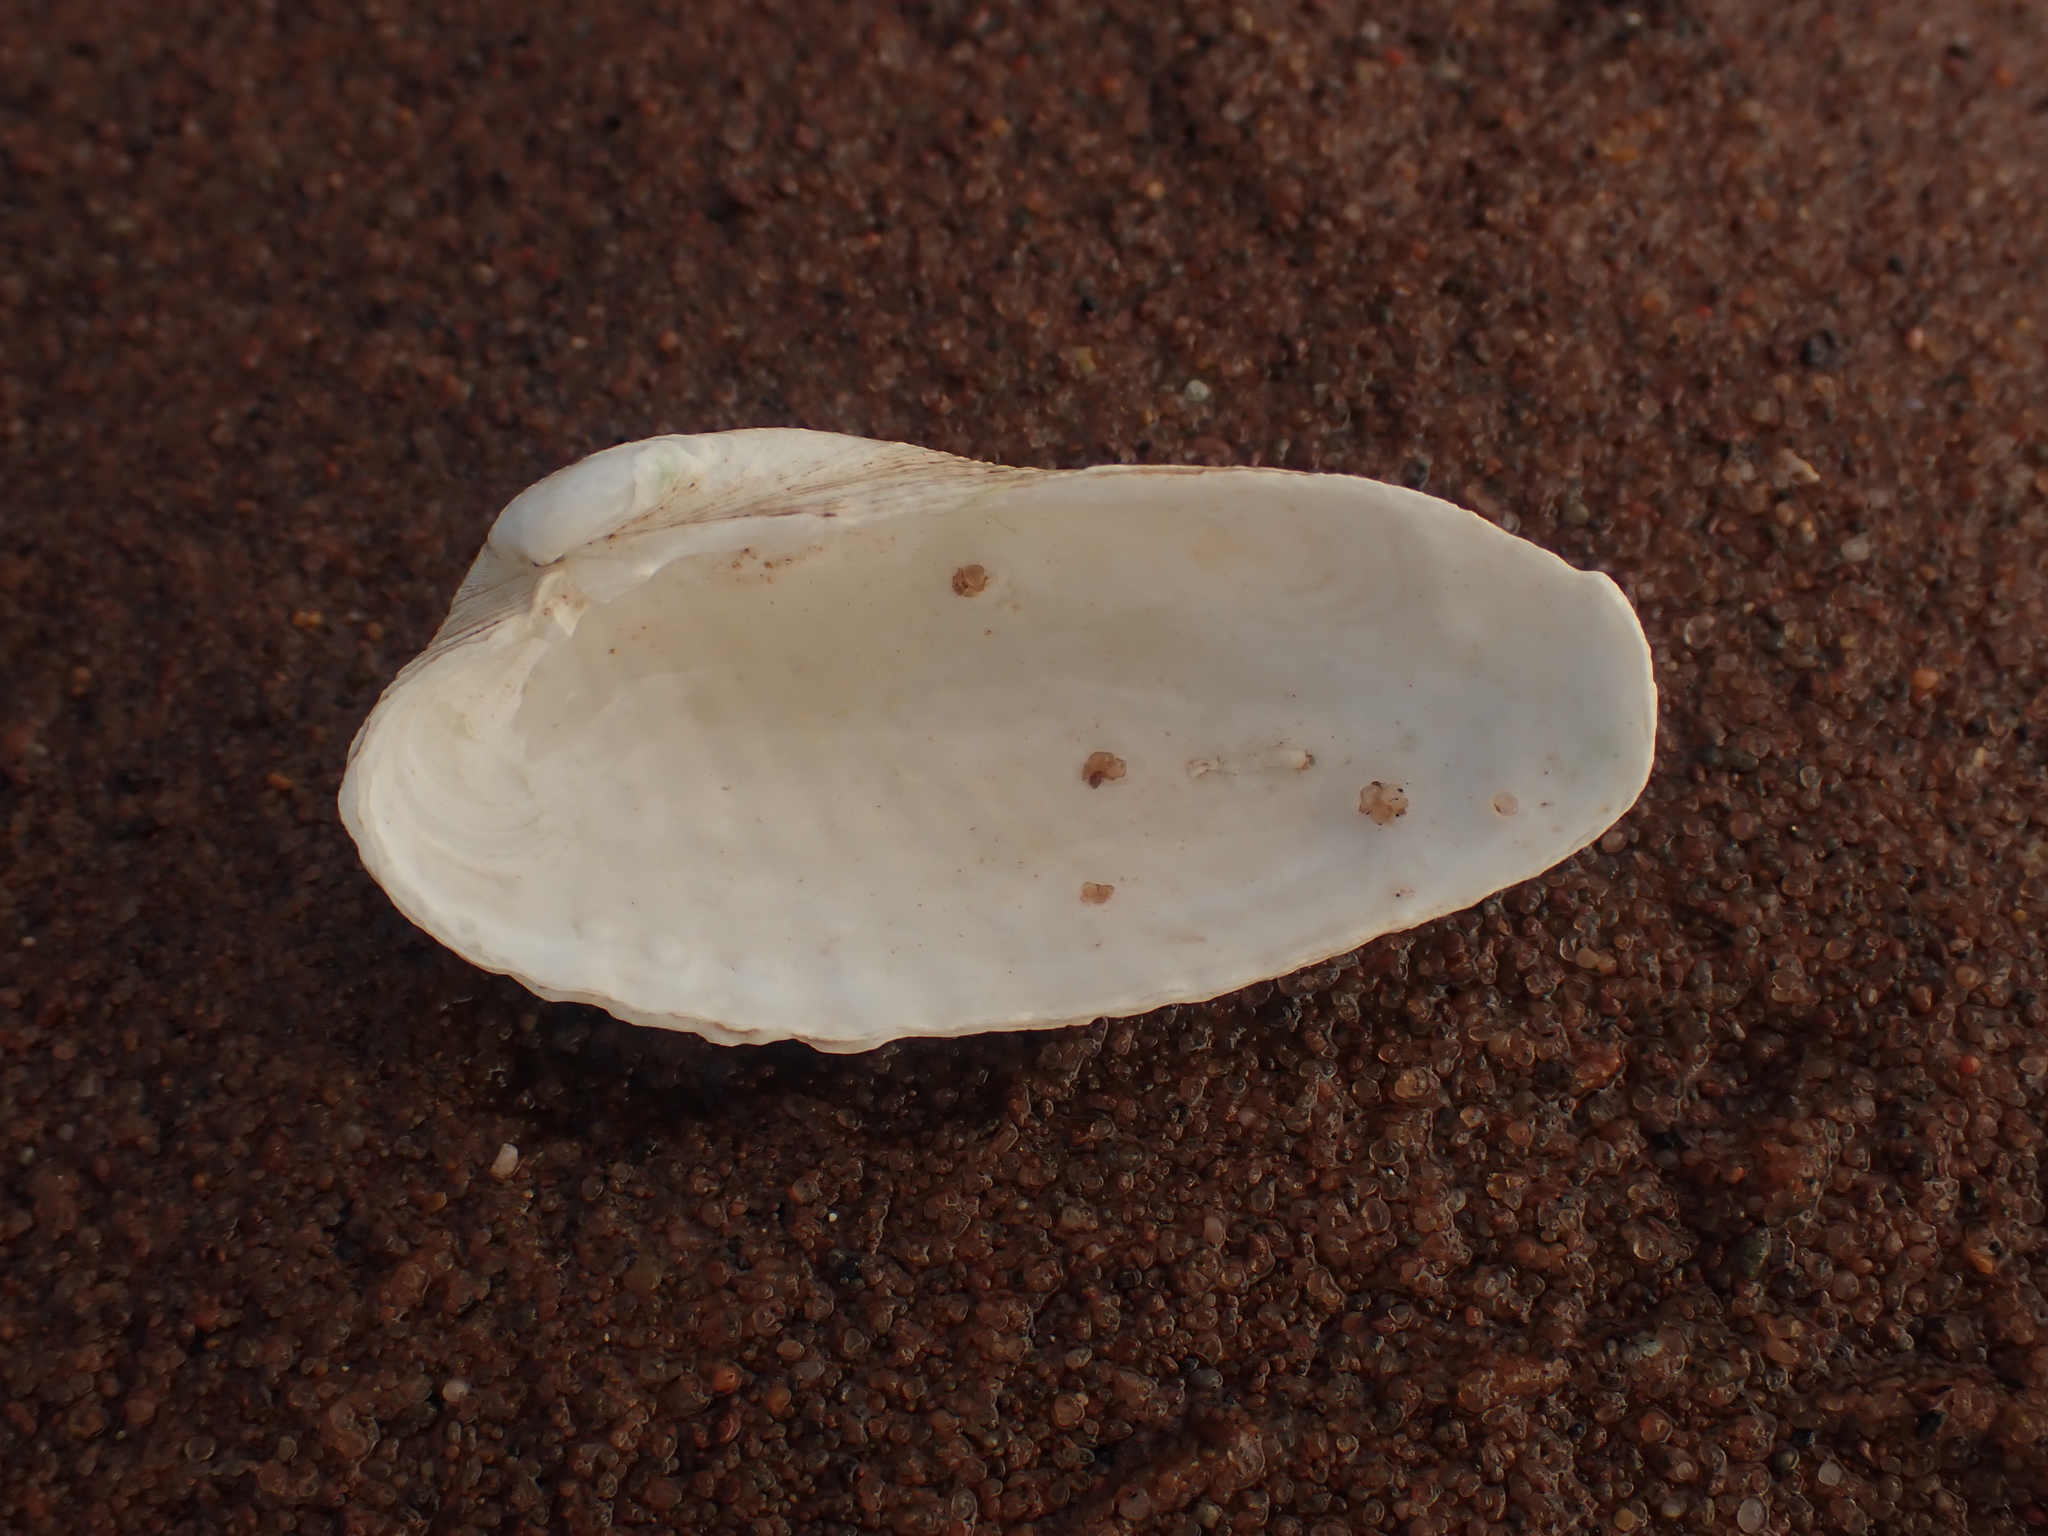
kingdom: Animalia
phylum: Mollusca
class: Bivalvia
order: Venerida
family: Veneridae
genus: Petricolaria
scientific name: Petricolaria pholadiformis
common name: American piddock
